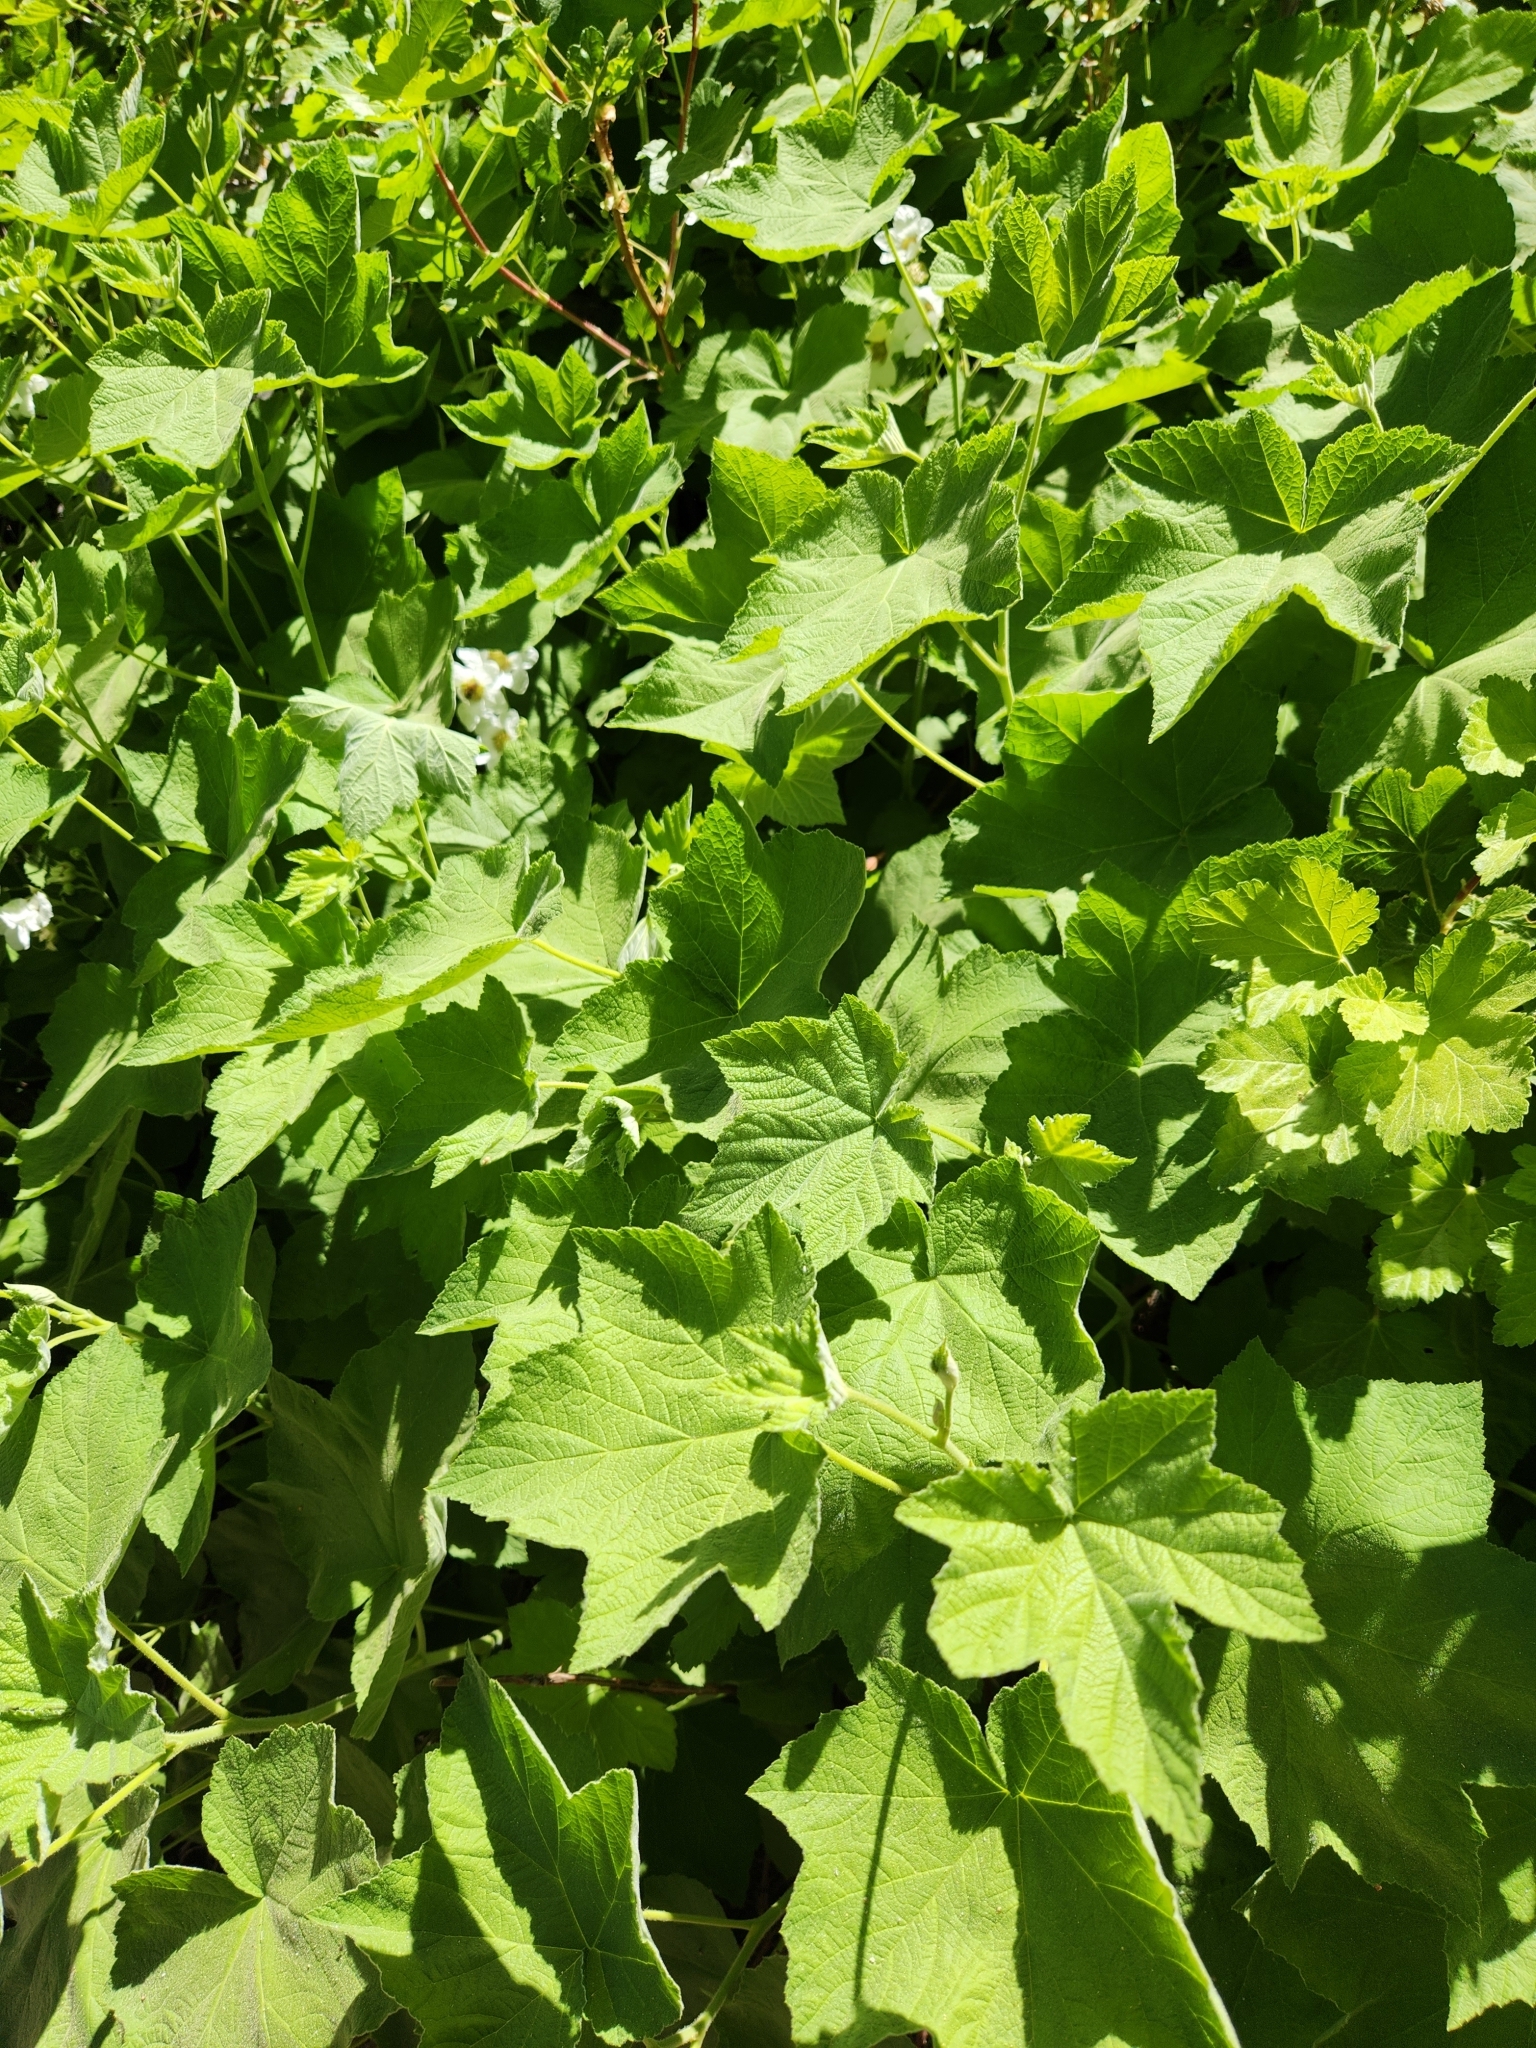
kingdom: Plantae
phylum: Tracheophyta
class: Magnoliopsida
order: Rosales
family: Rosaceae
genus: Rubus
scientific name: Rubus parviflorus
